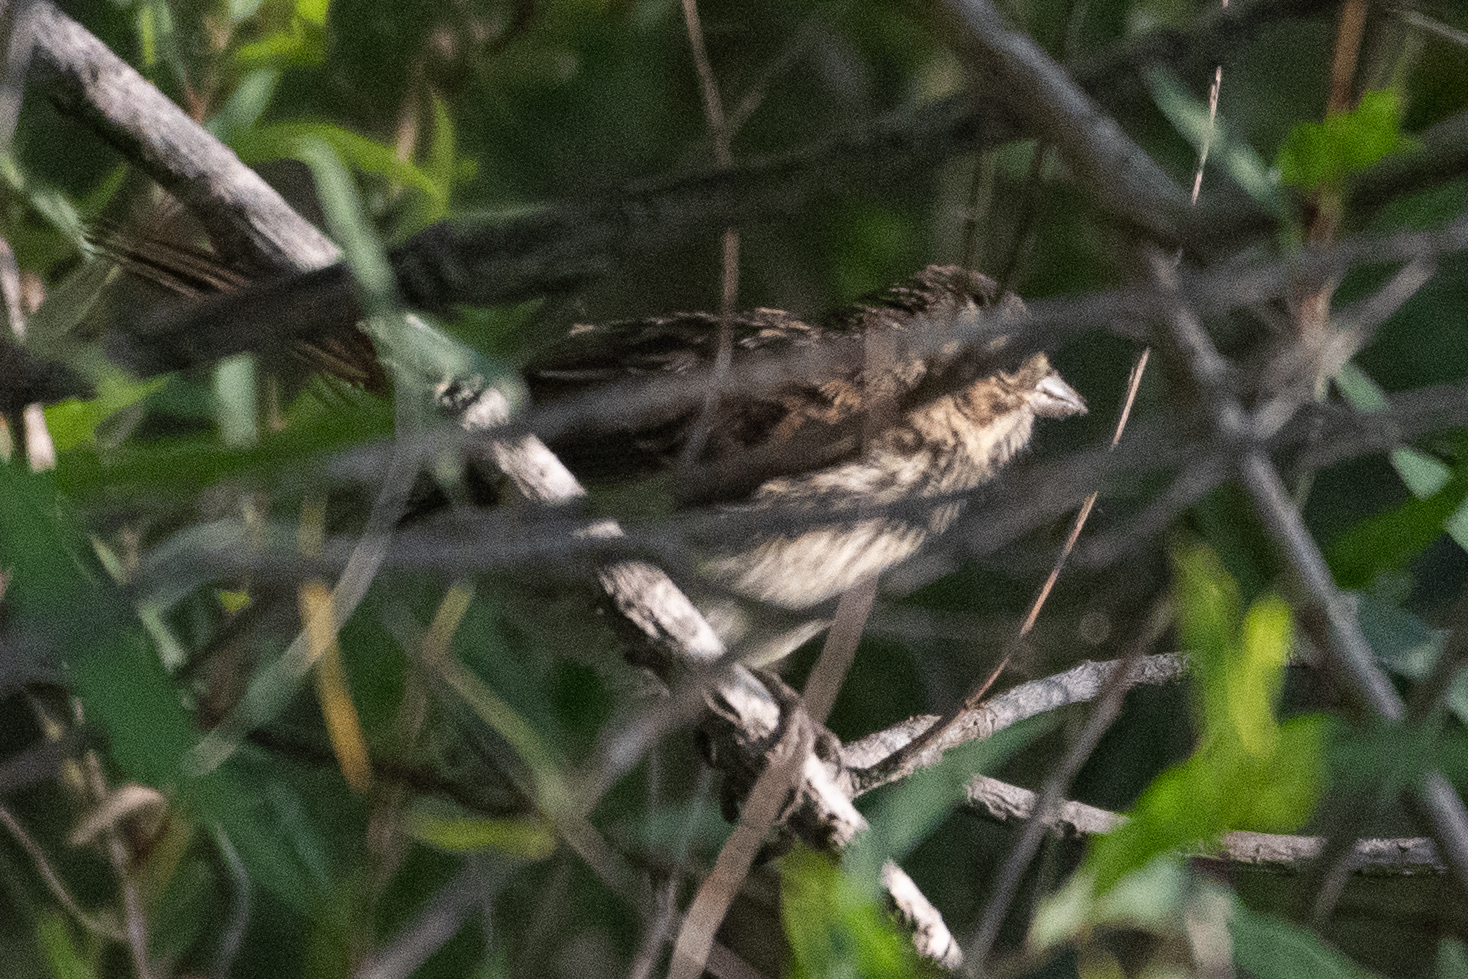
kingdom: Animalia
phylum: Chordata
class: Aves
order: Passeriformes
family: Passerellidae
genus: Melospiza
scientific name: Melospiza melodia
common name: Song sparrow
